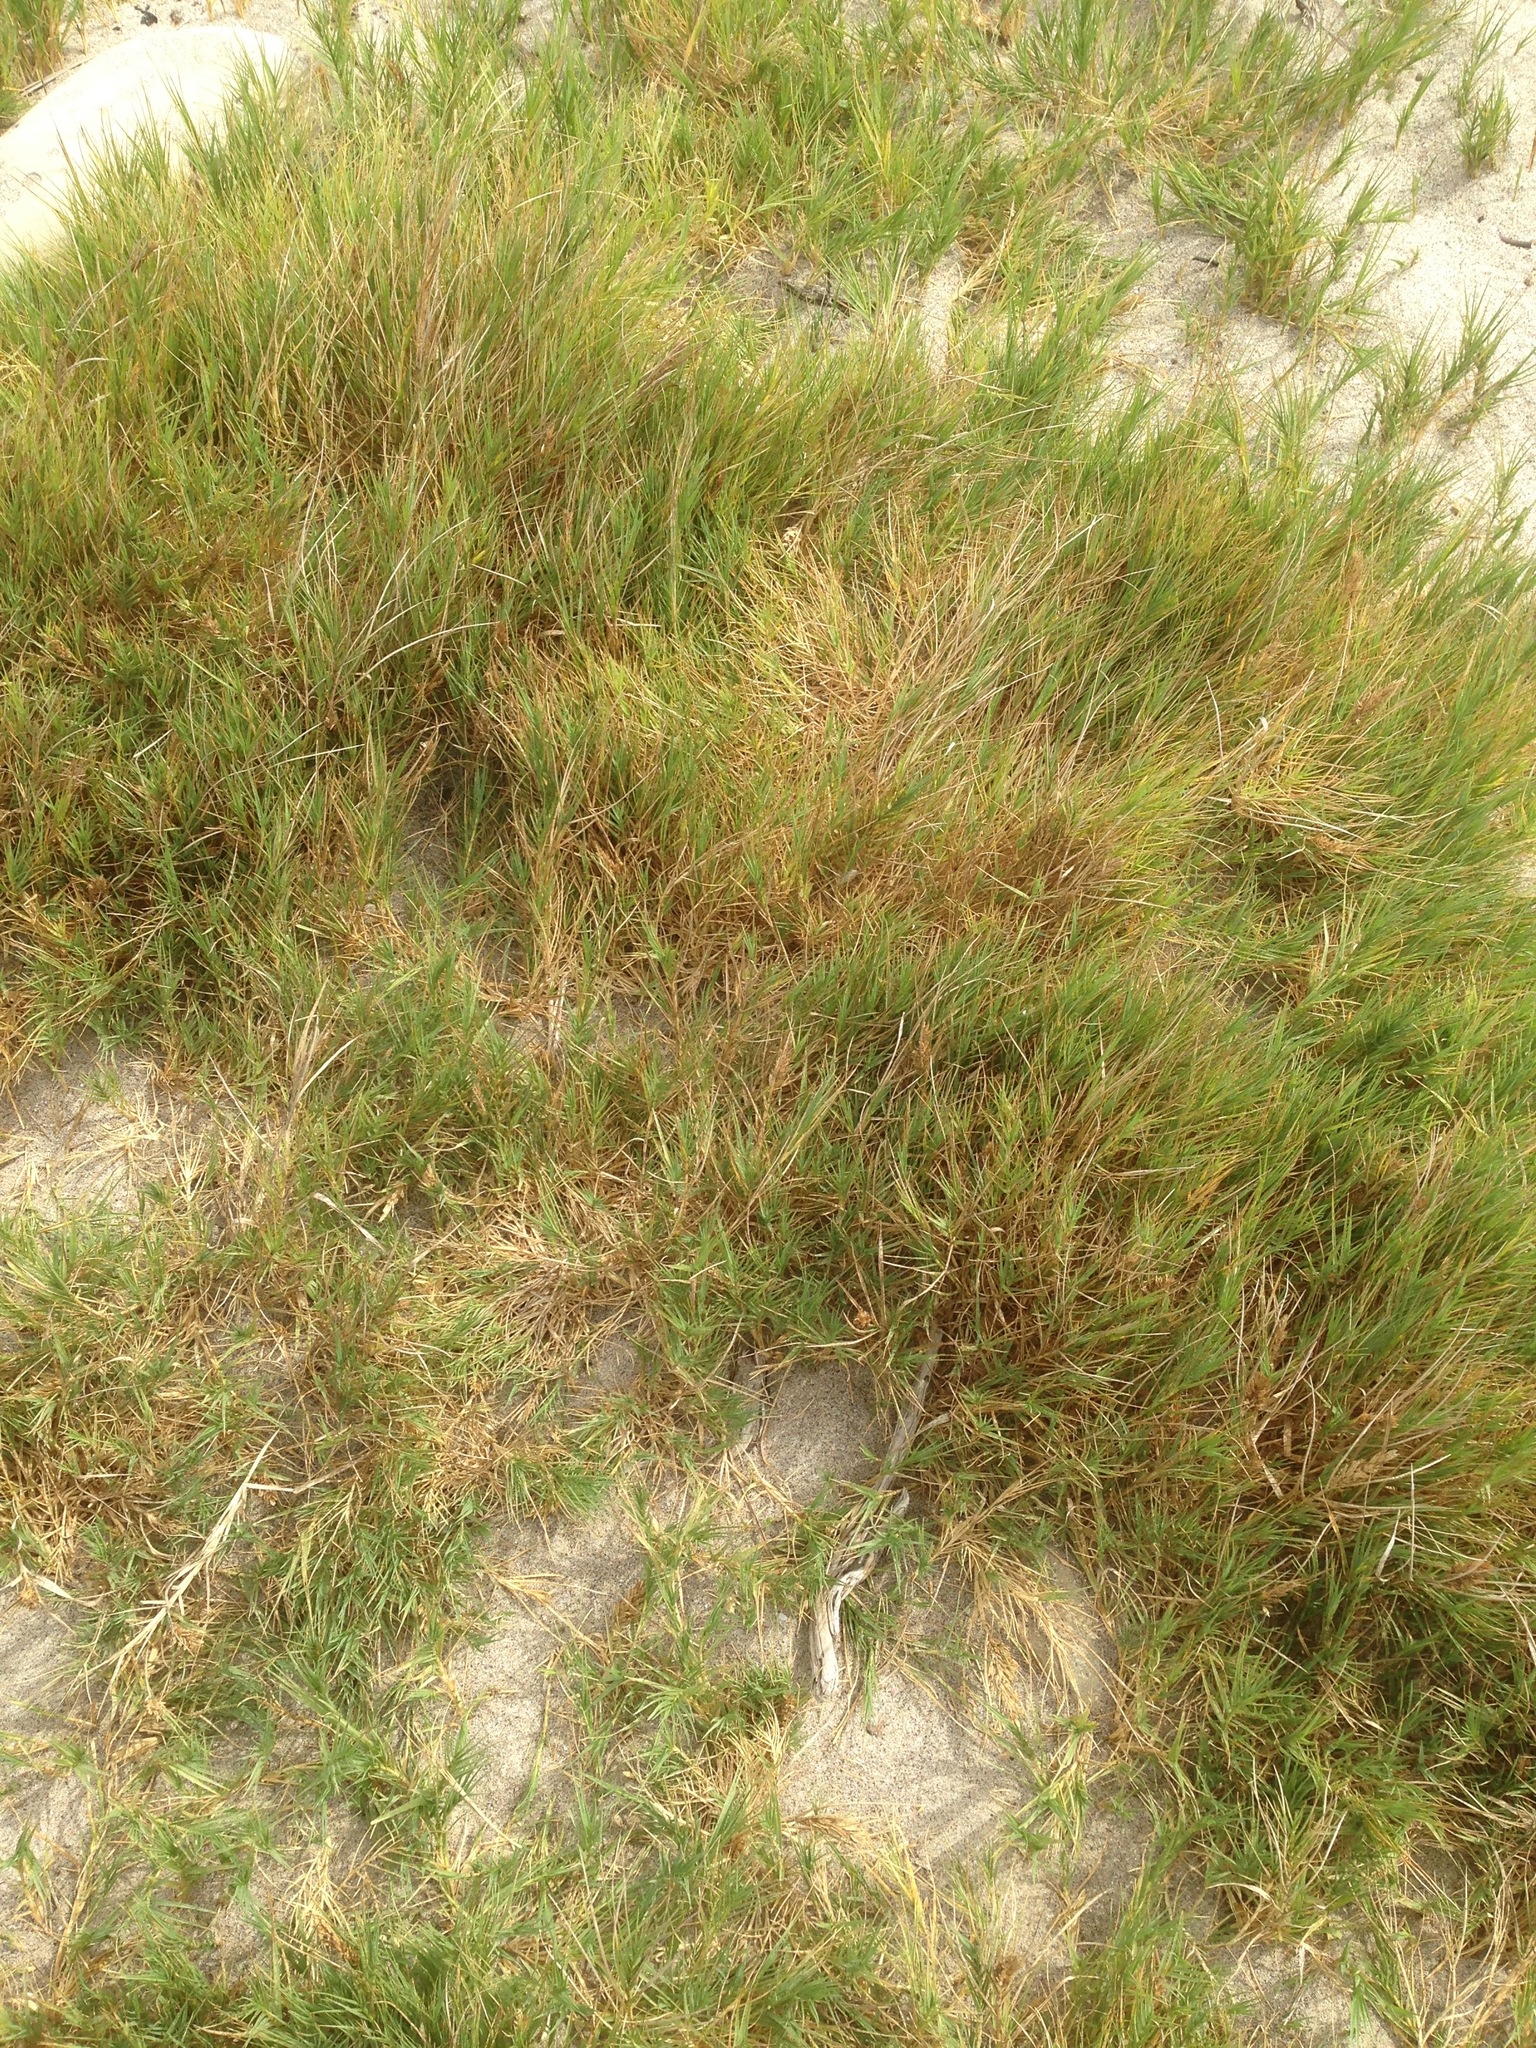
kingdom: Plantae
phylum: Tracheophyta
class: Liliopsida
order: Poales
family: Poaceae
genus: Distichlis
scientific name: Distichlis spicata
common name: Saltgrass
